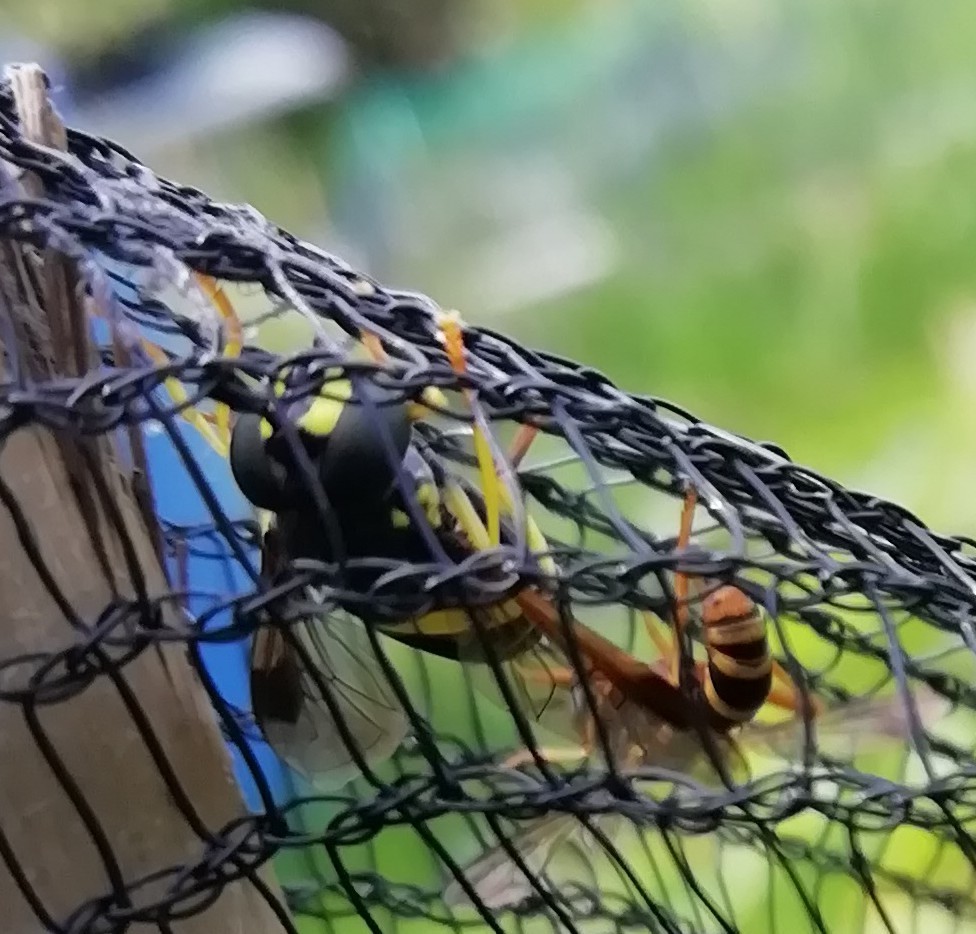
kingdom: Animalia
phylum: Arthropoda
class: Insecta
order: Diptera
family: Syrphidae
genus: Chrysotoxum
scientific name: Chrysotoxum bicincta
